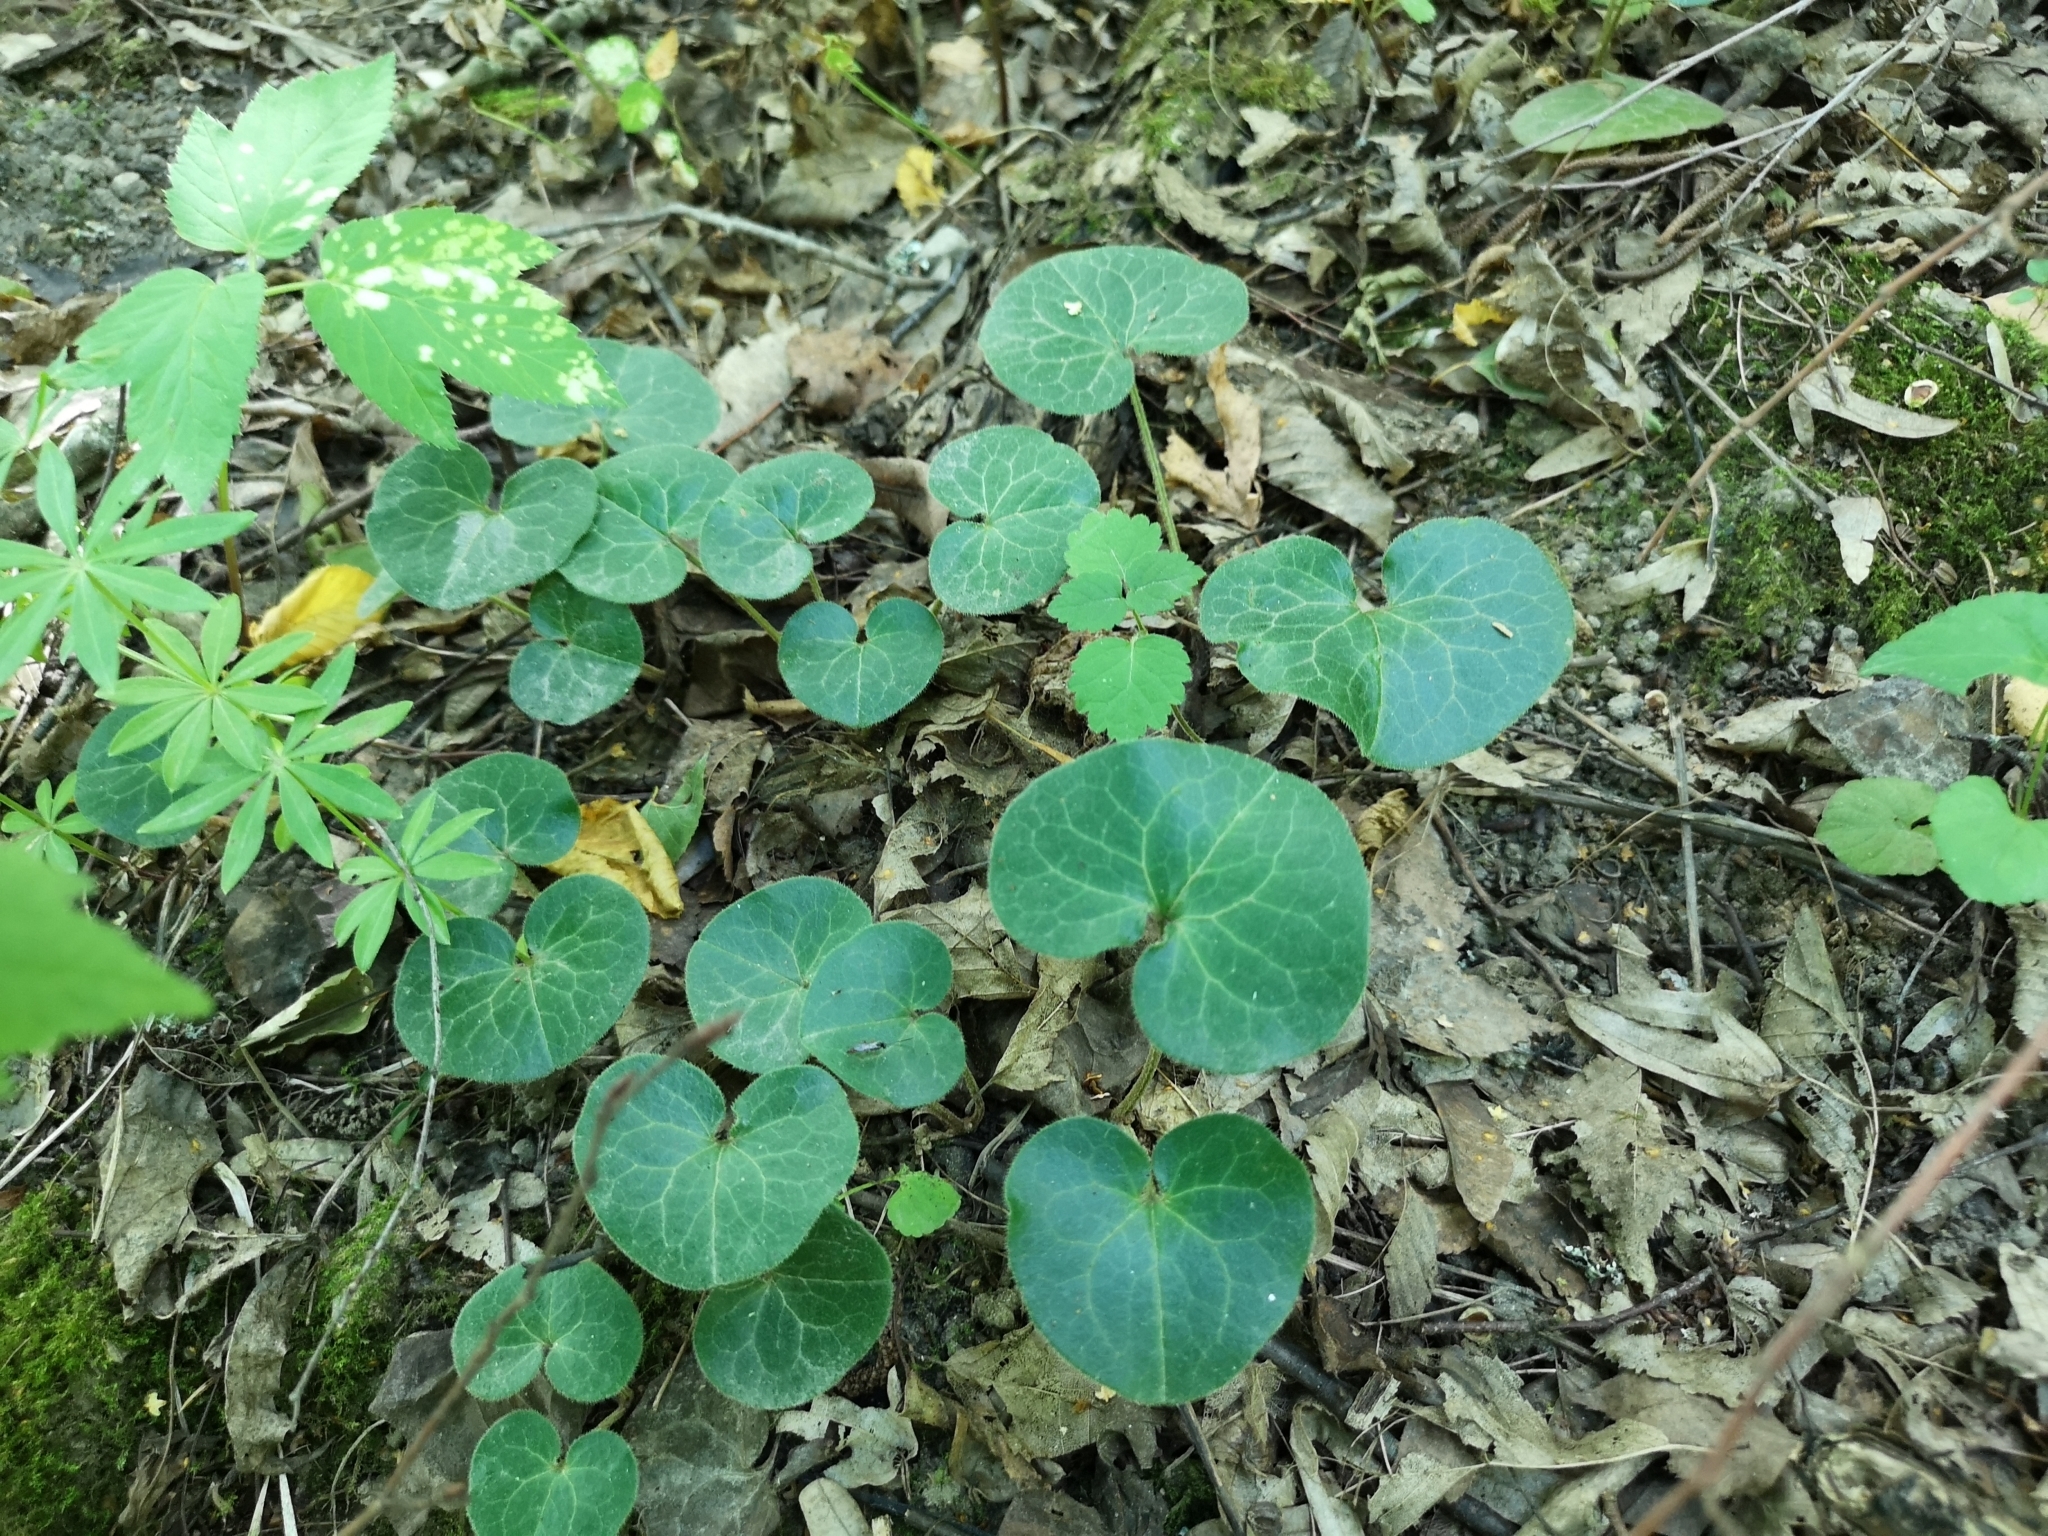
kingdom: Plantae
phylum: Tracheophyta
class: Magnoliopsida
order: Piperales
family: Aristolochiaceae
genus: Asarum
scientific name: Asarum europaeum
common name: Asarabacca
